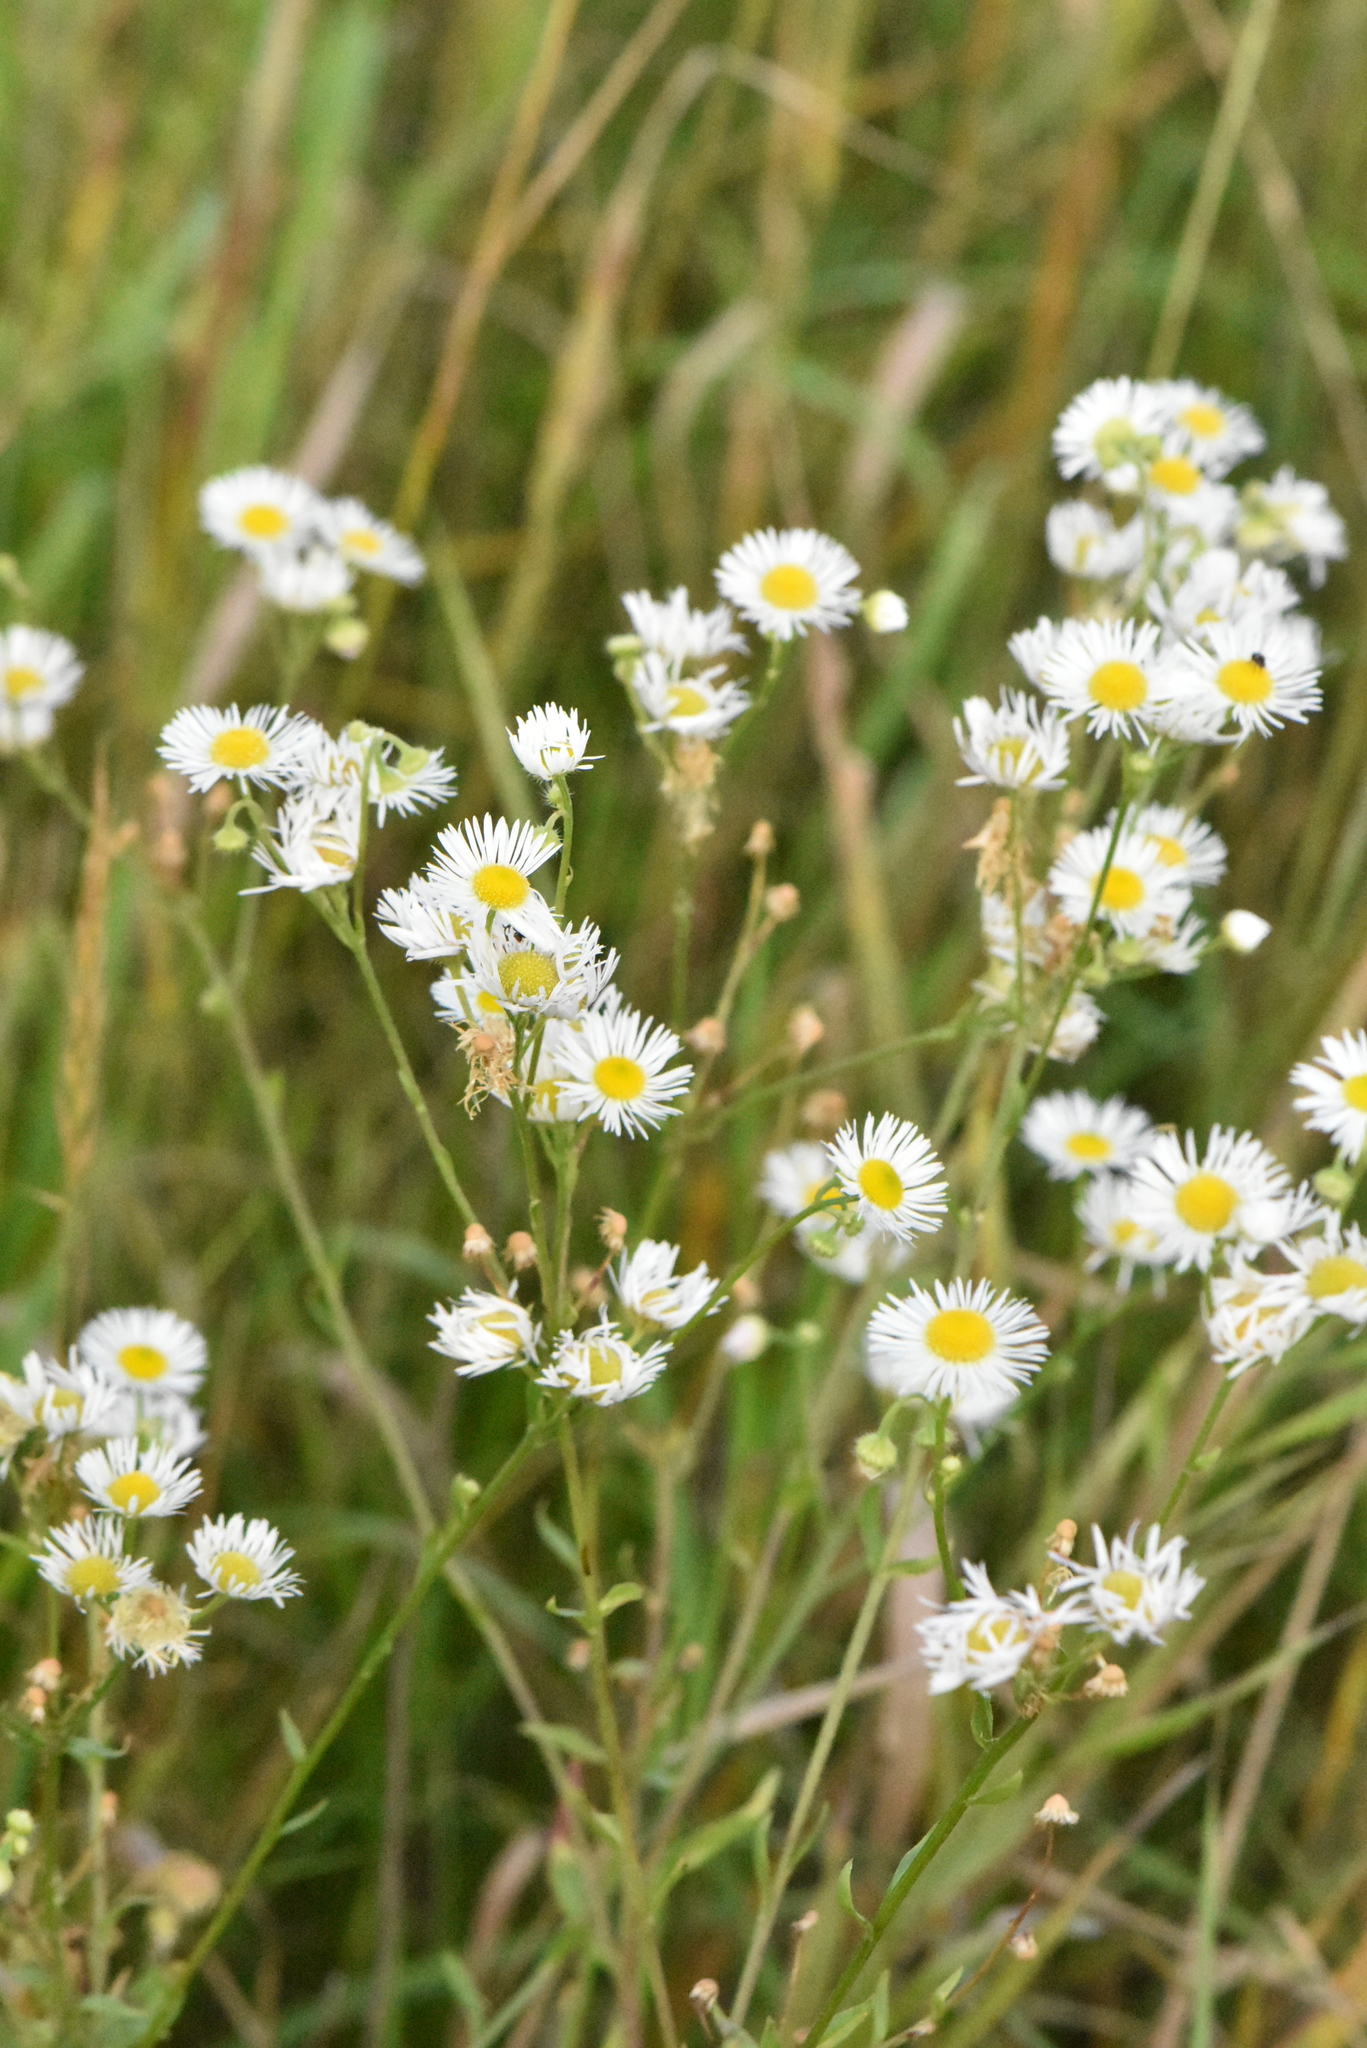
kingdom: Plantae
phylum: Tracheophyta
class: Magnoliopsida
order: Asterales
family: Asteraceae
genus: Erigeron
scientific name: Erigeron annuus
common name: Tall fleabane
